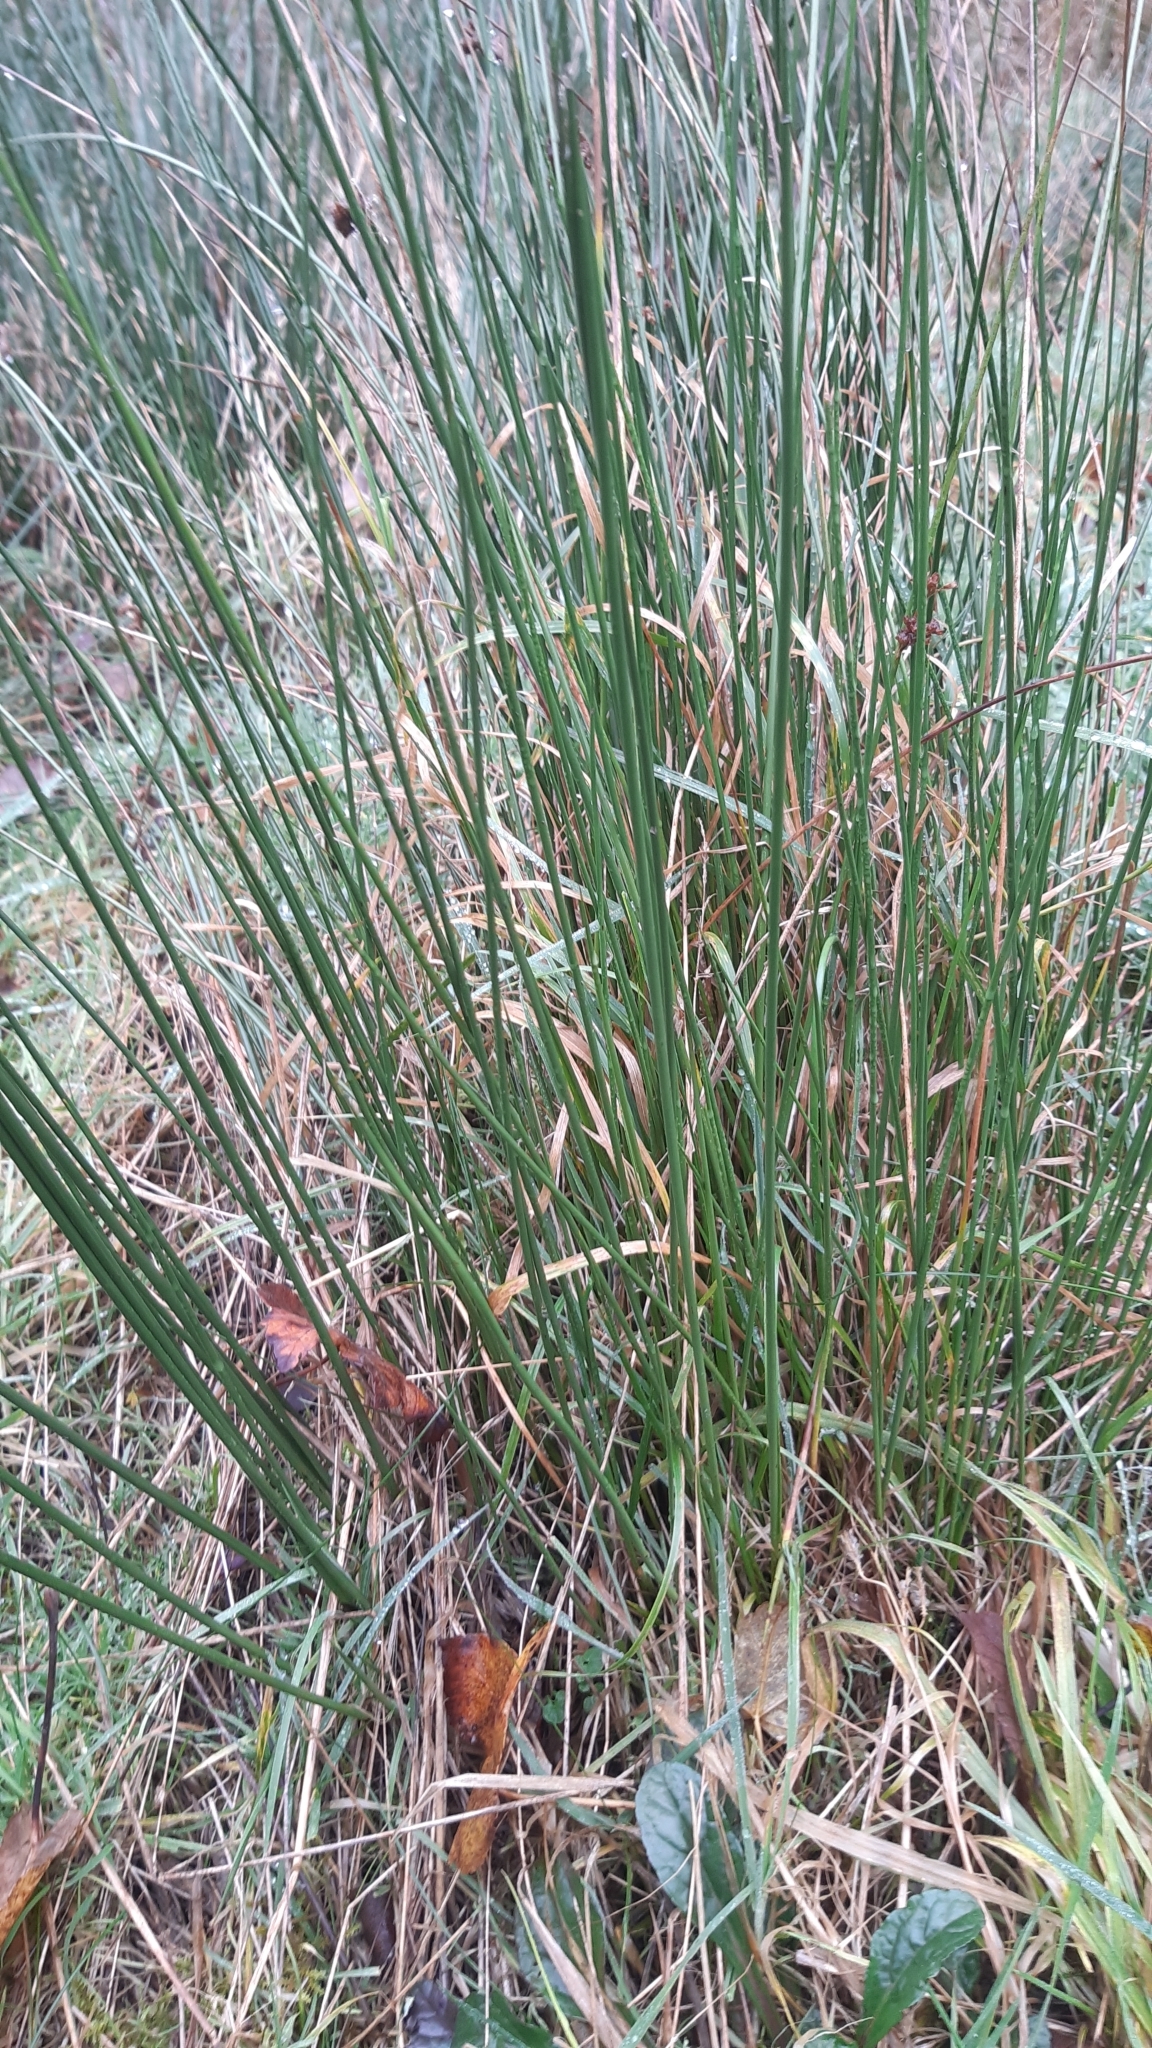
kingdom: Plantae
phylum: Tracheophyta
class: Liliopsida
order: Poales
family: Juncaceae
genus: Juncus
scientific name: Juncus effusus
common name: Soft rush
